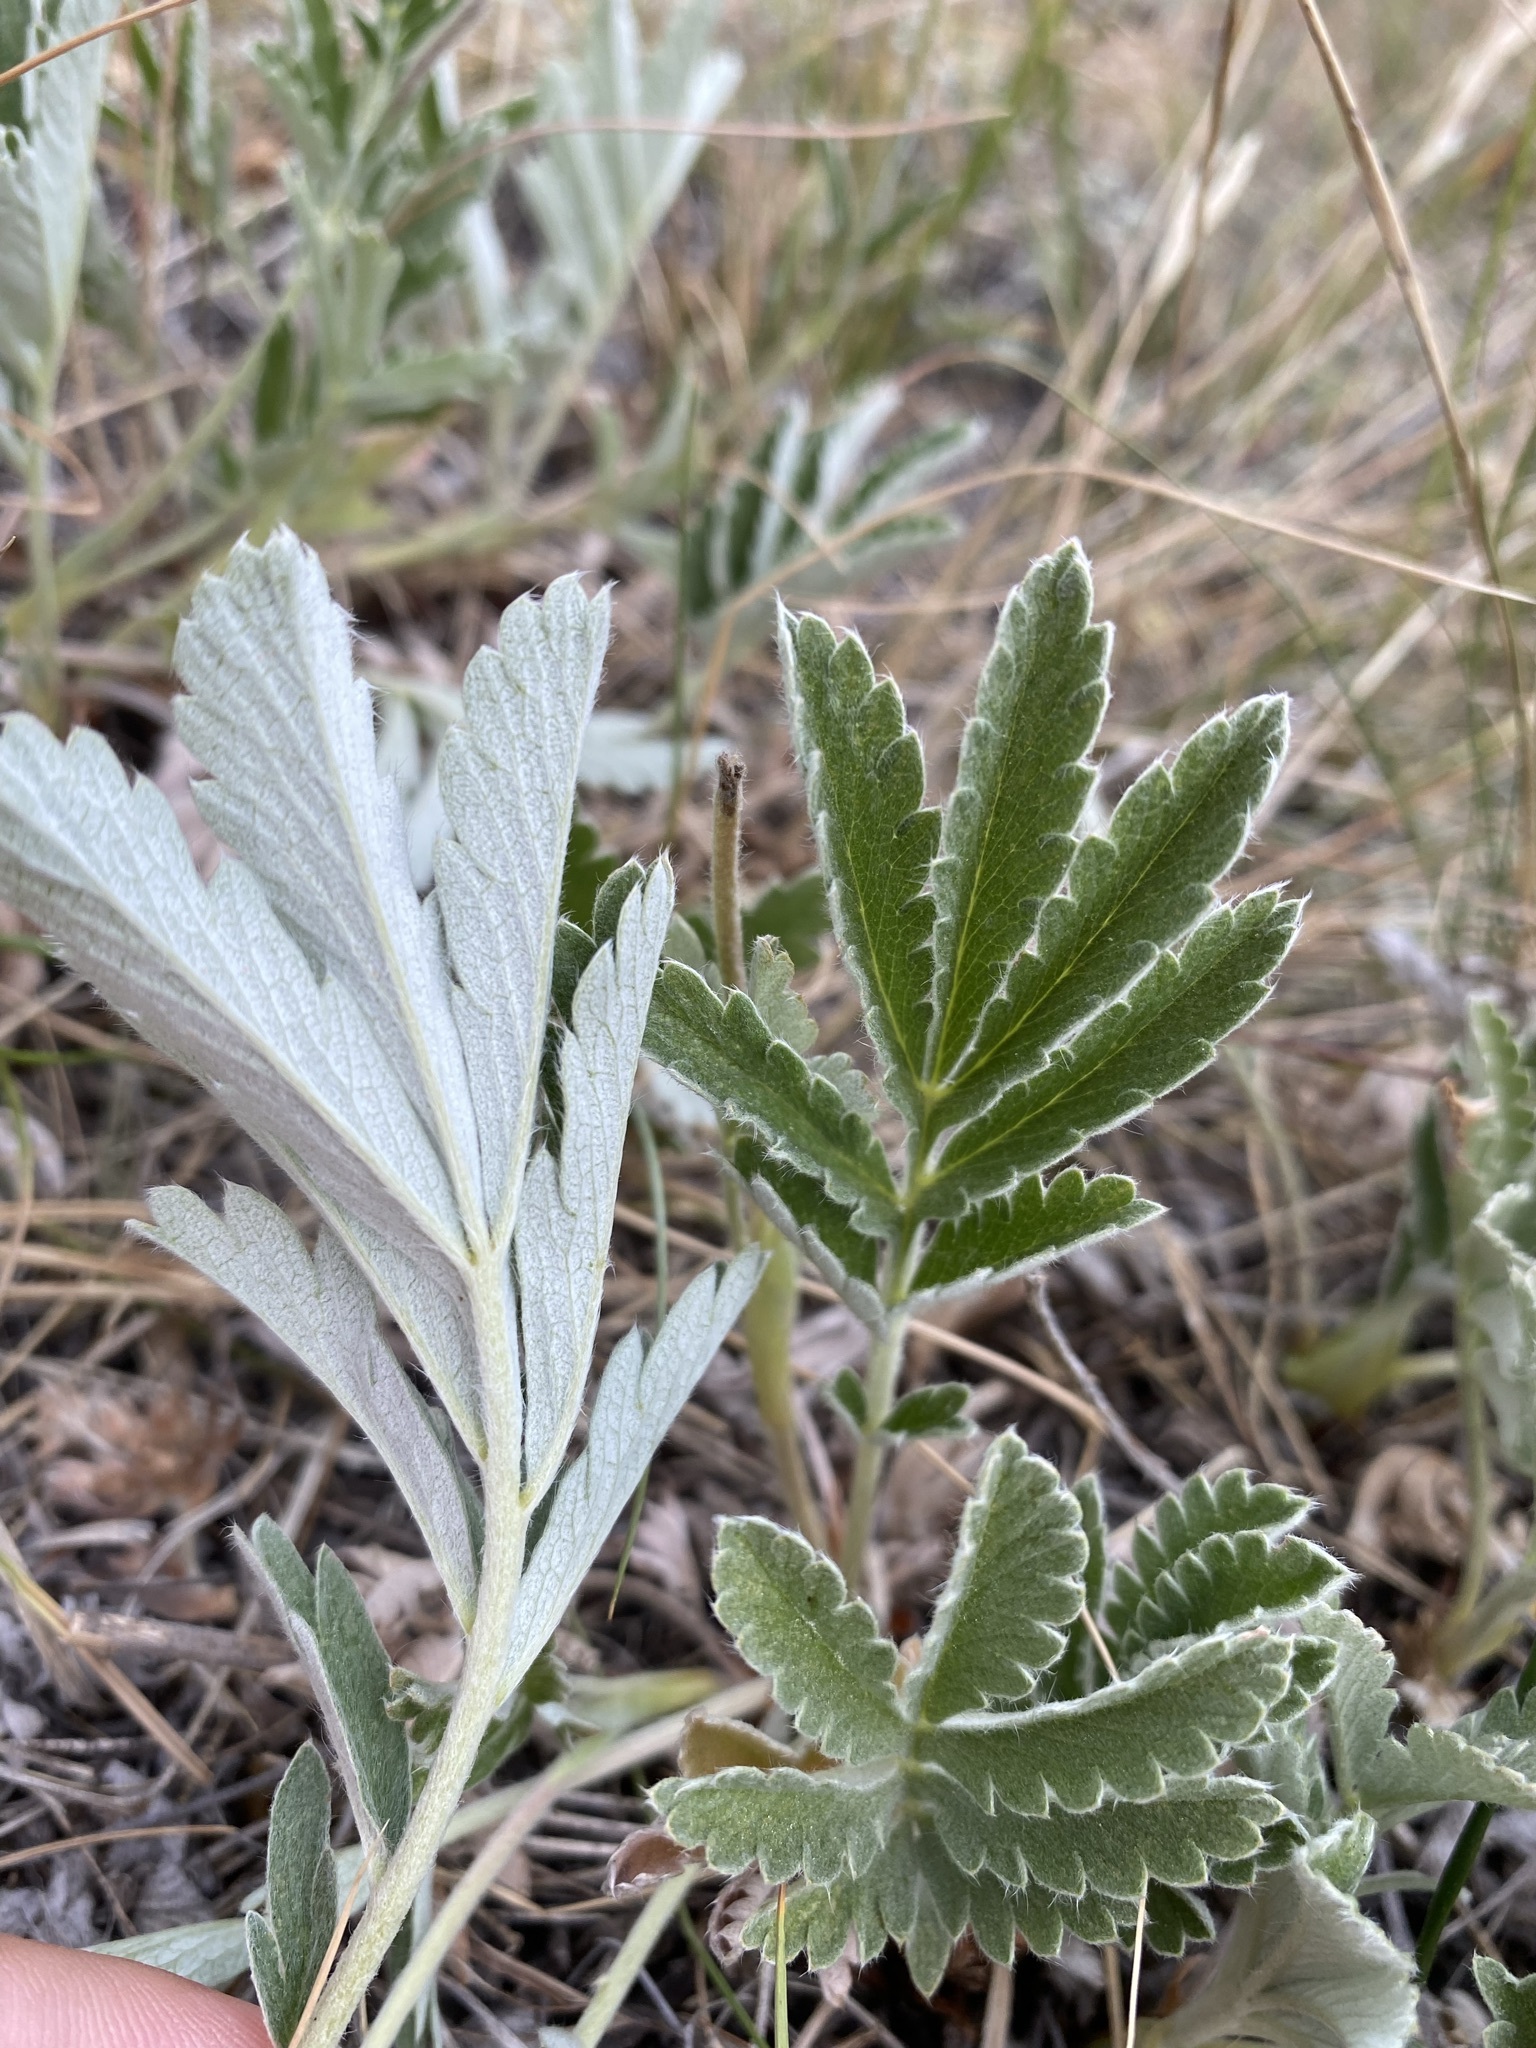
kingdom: Plantae
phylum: Tracheophyta
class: Magnoliopsida
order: Rosales
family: Rosaceae
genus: Potentilla
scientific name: Potentilla hippiana
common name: Woolly cinquefoil
